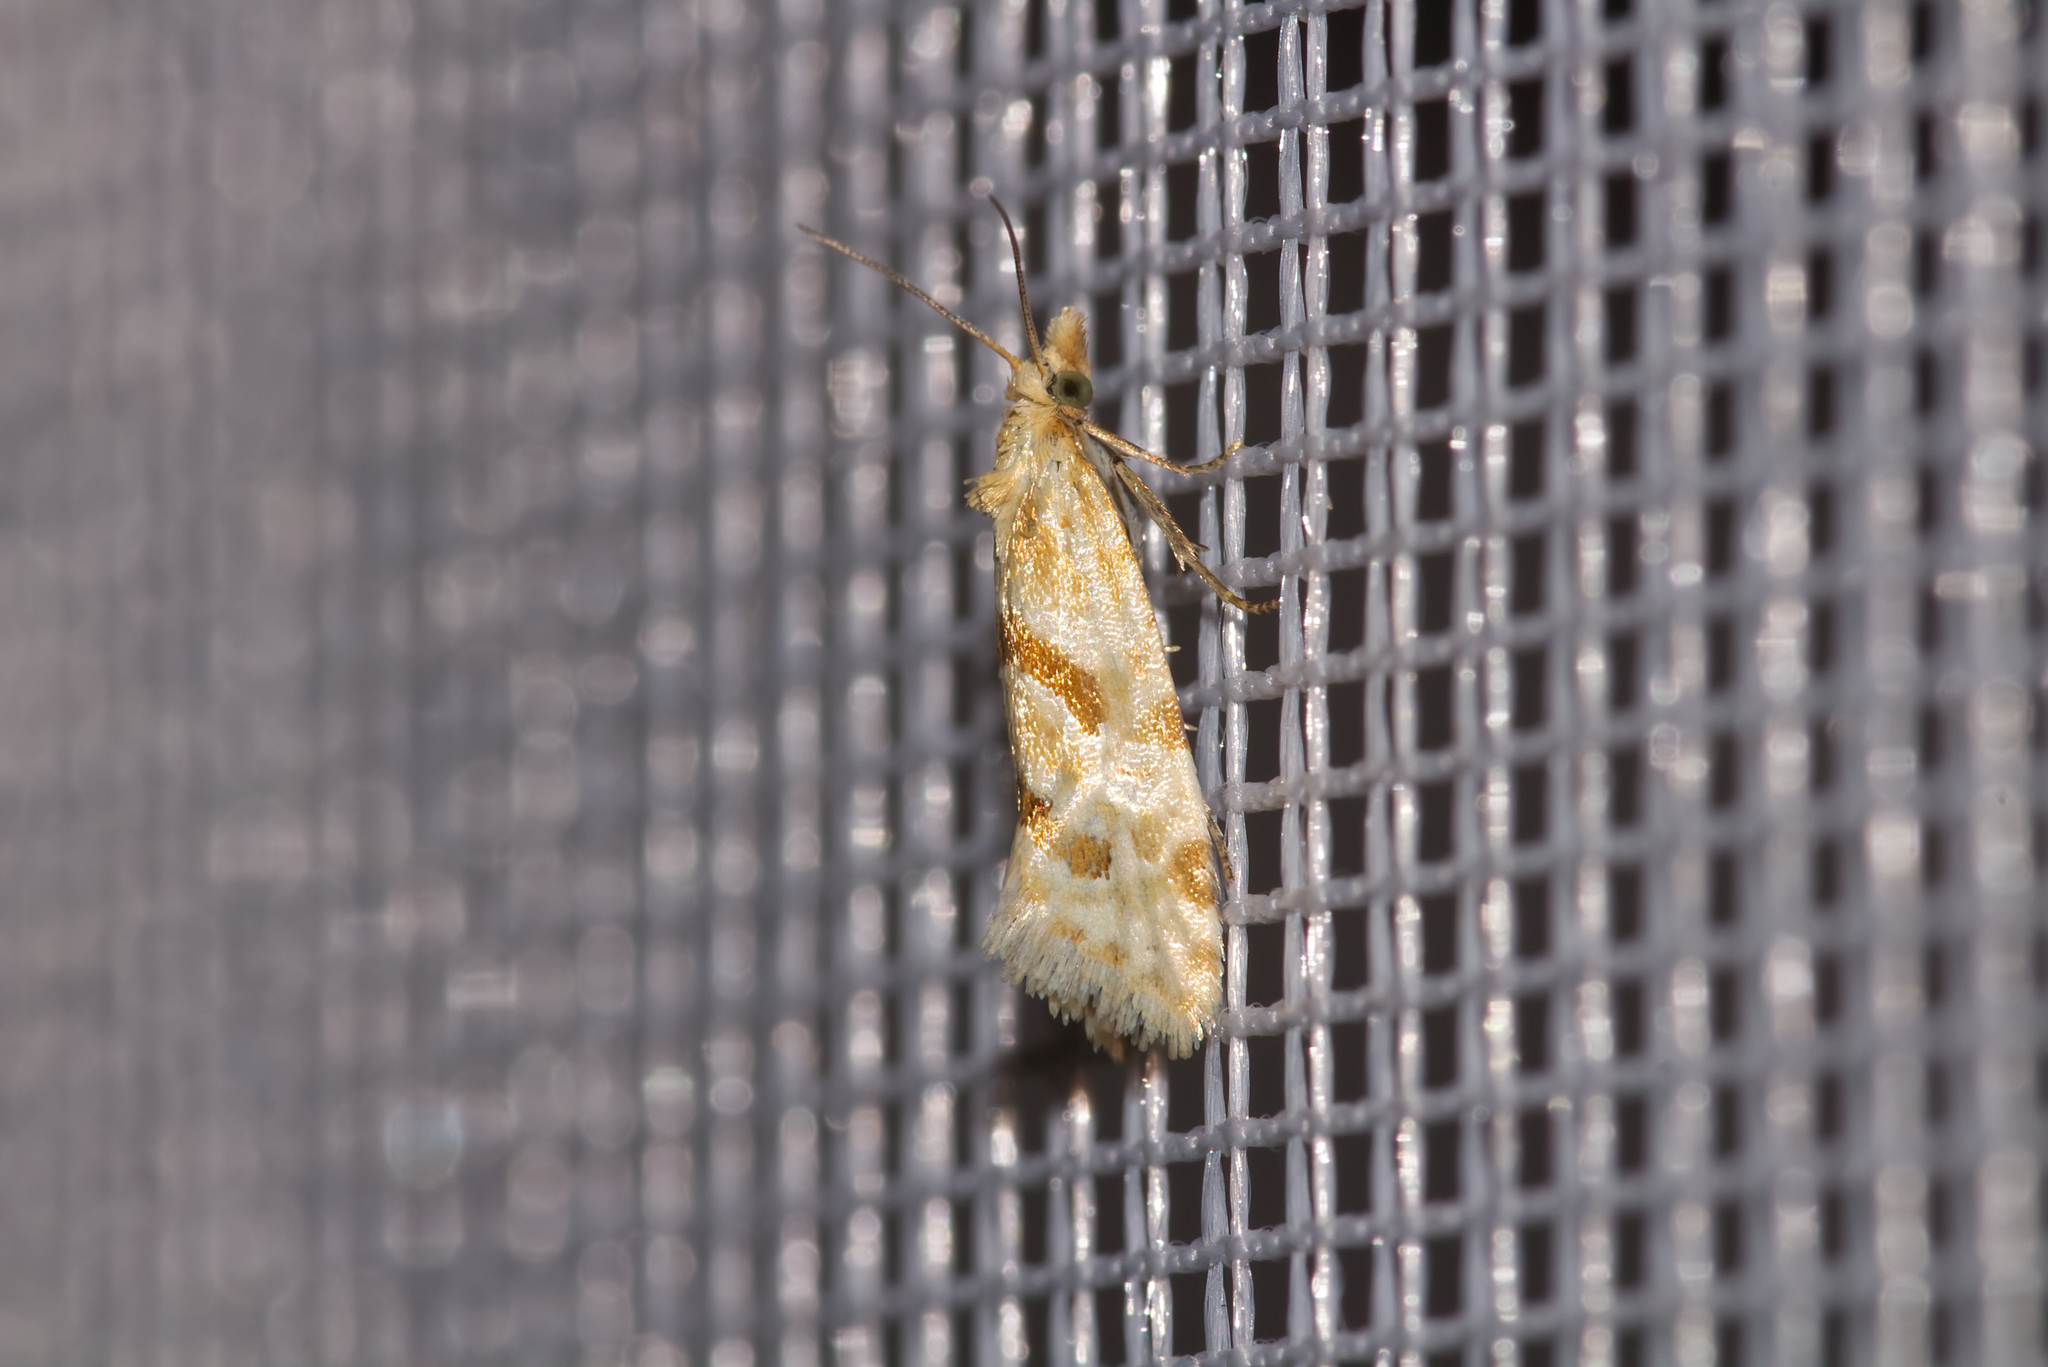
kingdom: Animalia
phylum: Arthropoda
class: Insecta
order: Lepidoptera
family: Tortricidae
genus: Aethes
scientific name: Aethes smeathmanniana
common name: Yarrow conch
